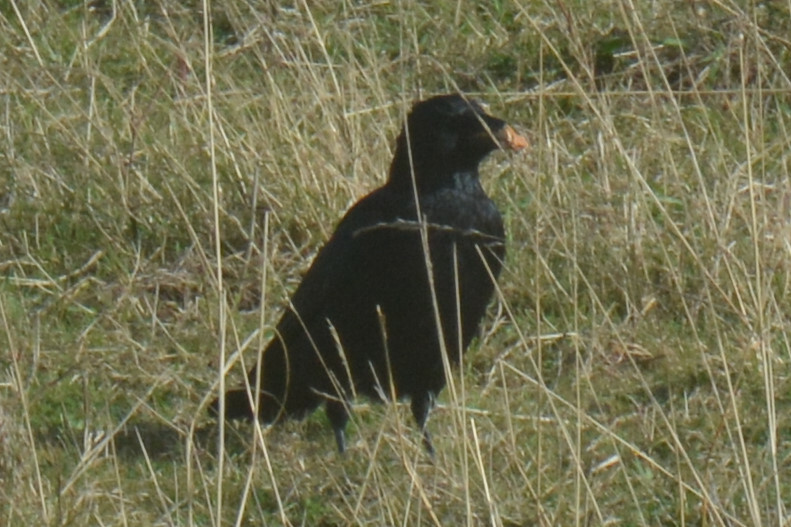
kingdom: Animalia
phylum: Chordata
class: Aves
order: Passeriformes
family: Corvidae
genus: Corvus
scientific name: Corvus corone
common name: Carrion crow
